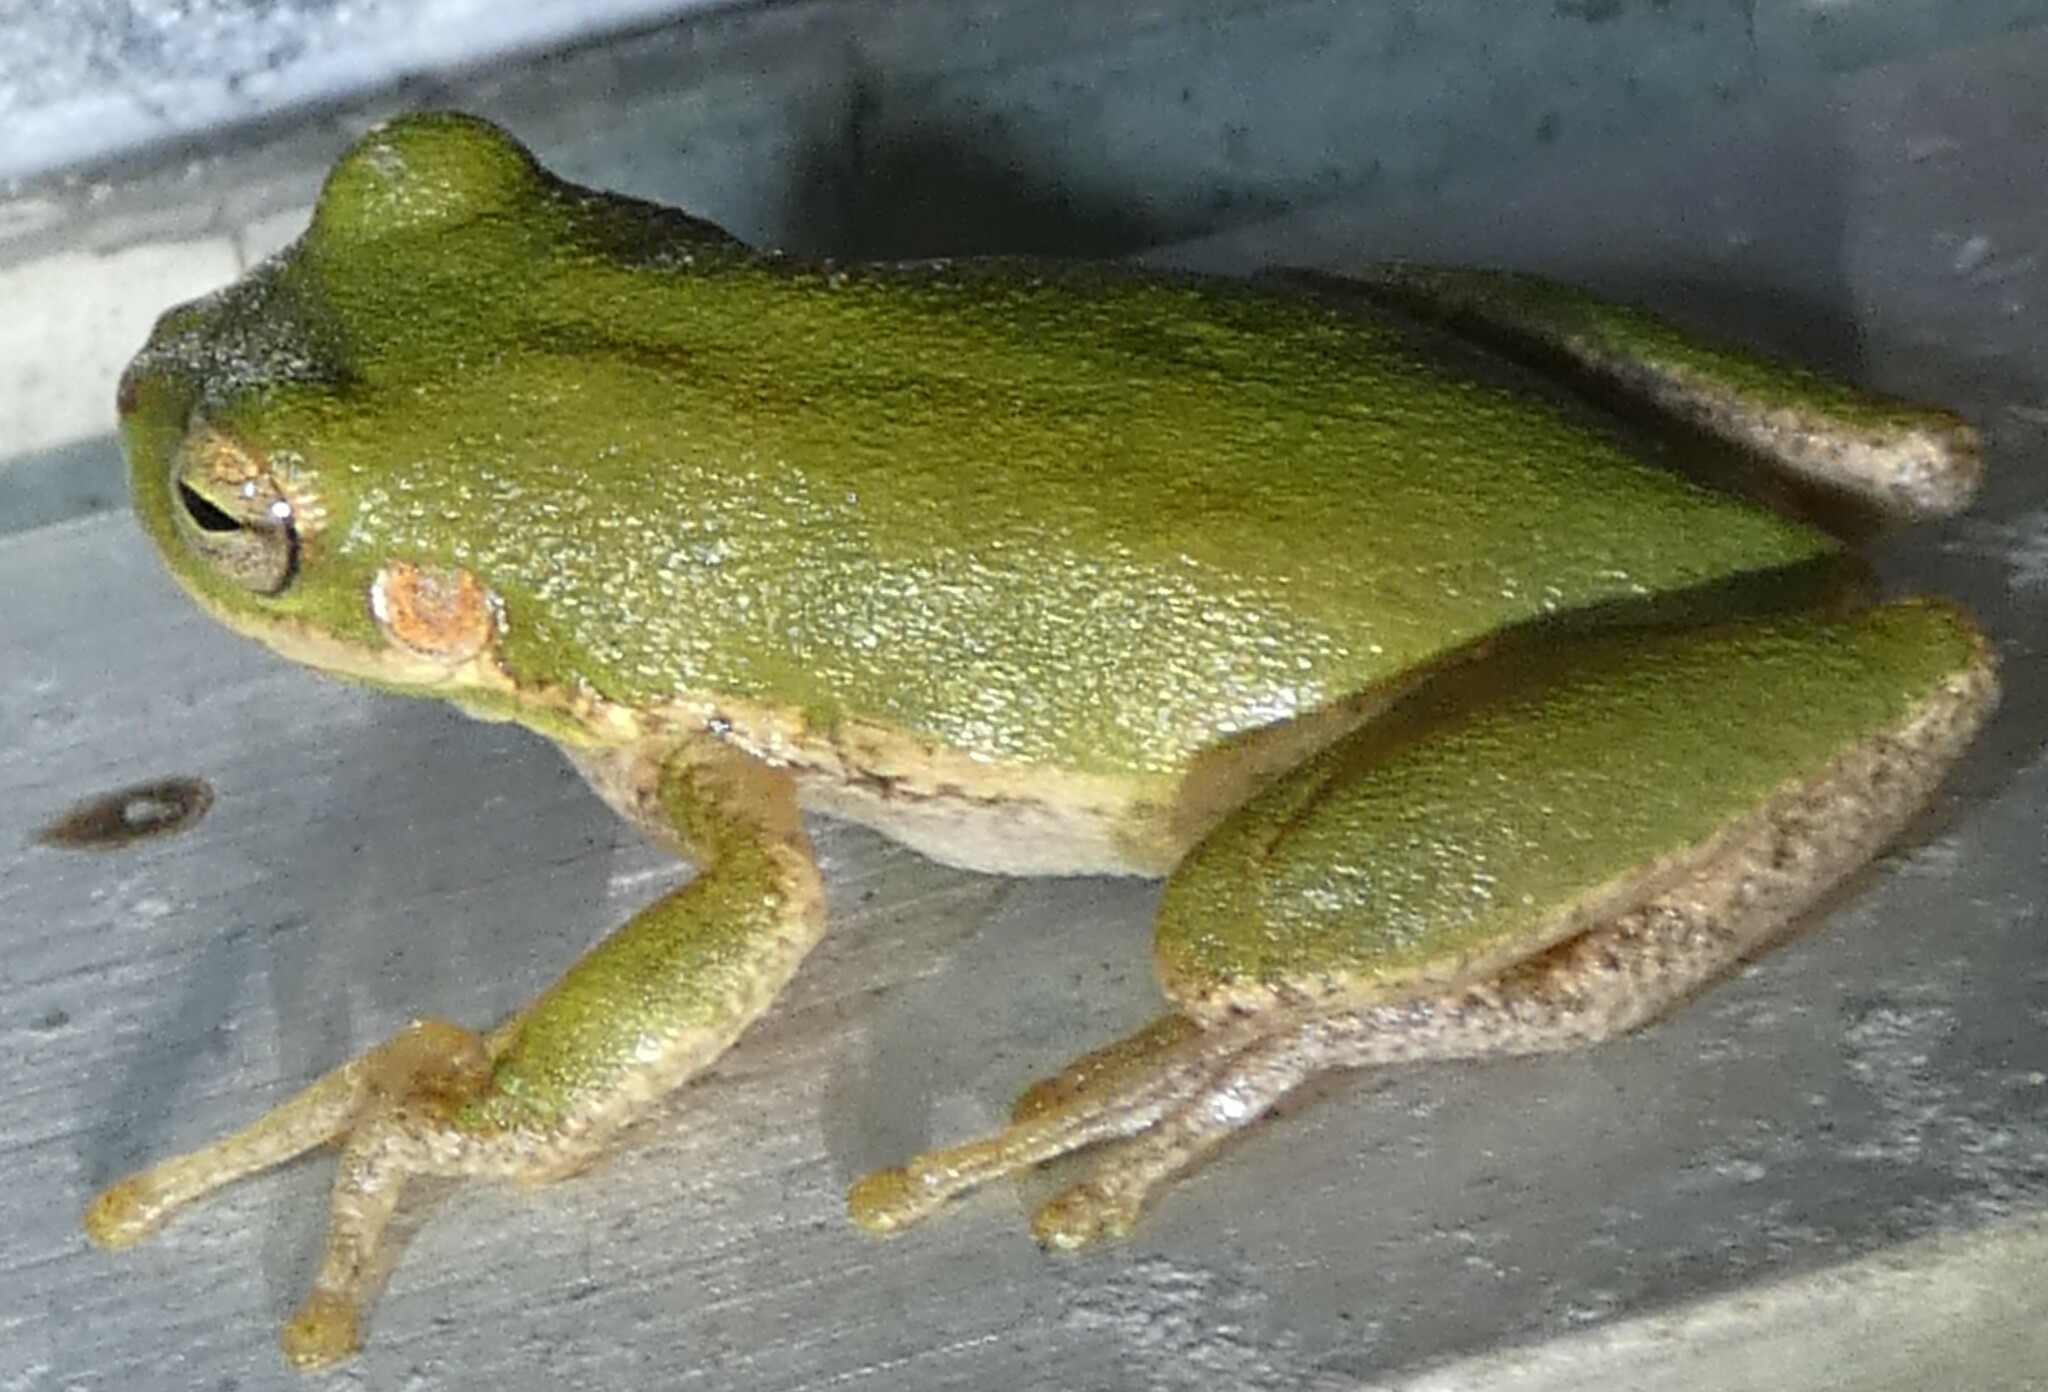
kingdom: Animalia
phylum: Chordata
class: Amphibia
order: Anura
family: Hylidae
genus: Dryophytes
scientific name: Dryophytes squirellus
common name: Squirrel treefrog
